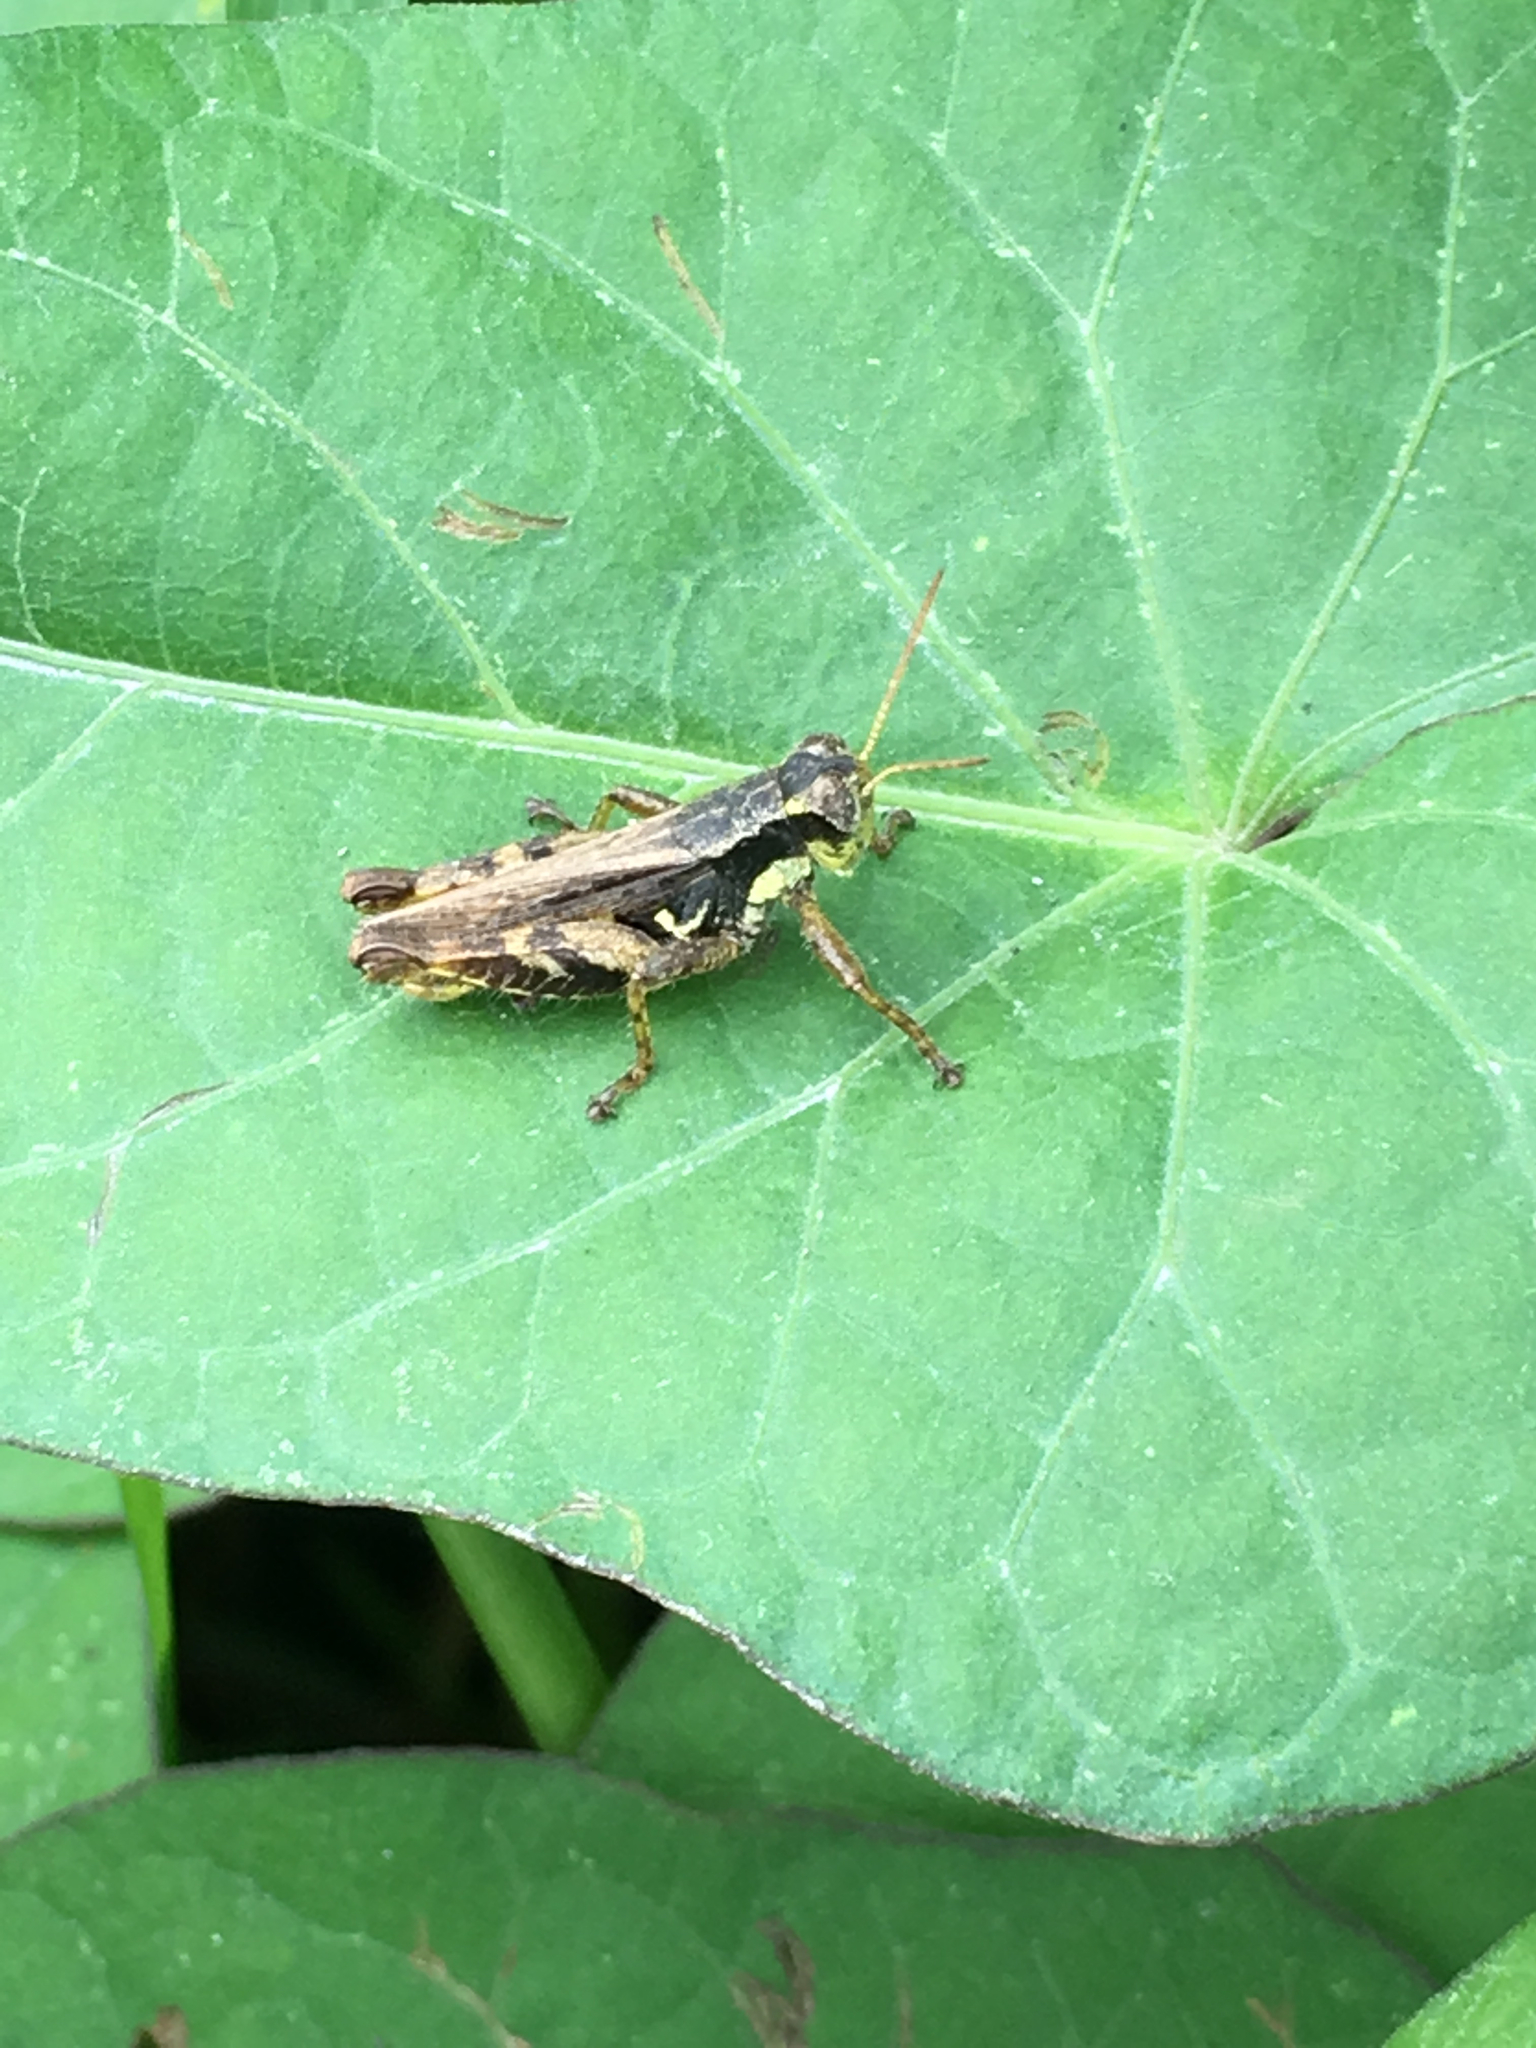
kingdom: Animalia
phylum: Arthropoda
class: Insecta
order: Orthoptera
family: Acrididae
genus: Aidemona
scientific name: Aidemona azteca
